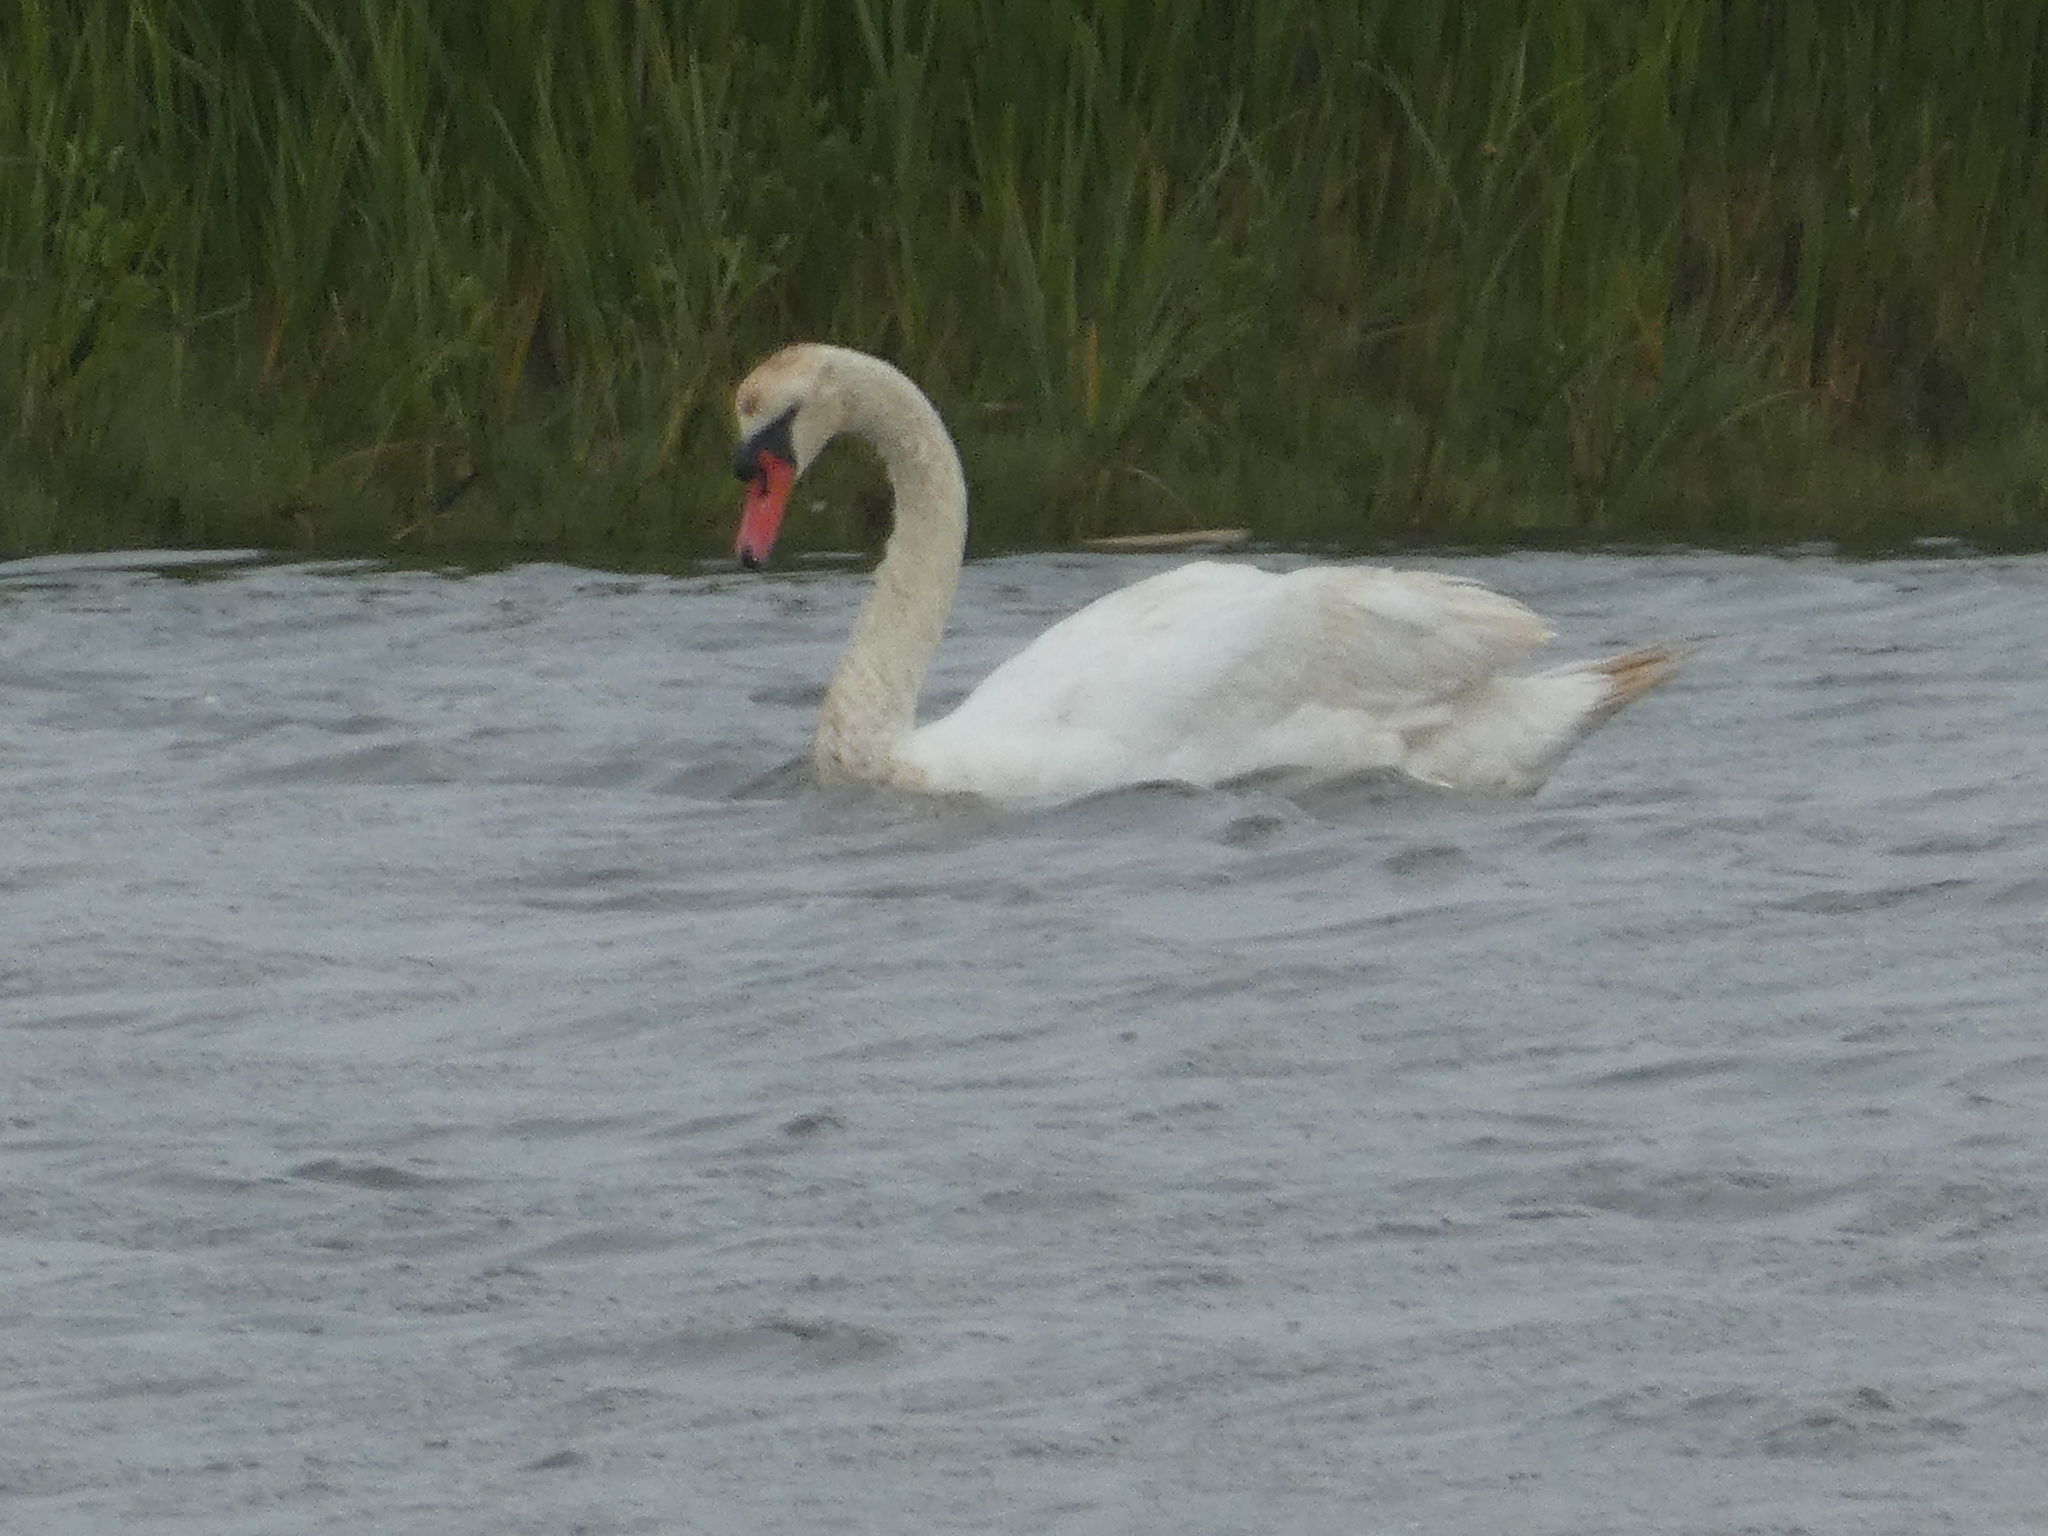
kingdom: Animalia
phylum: Chordata
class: Aves
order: Anseriformes
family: Anatidae
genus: Cygnus
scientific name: Cygnus olor
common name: Mute swan
